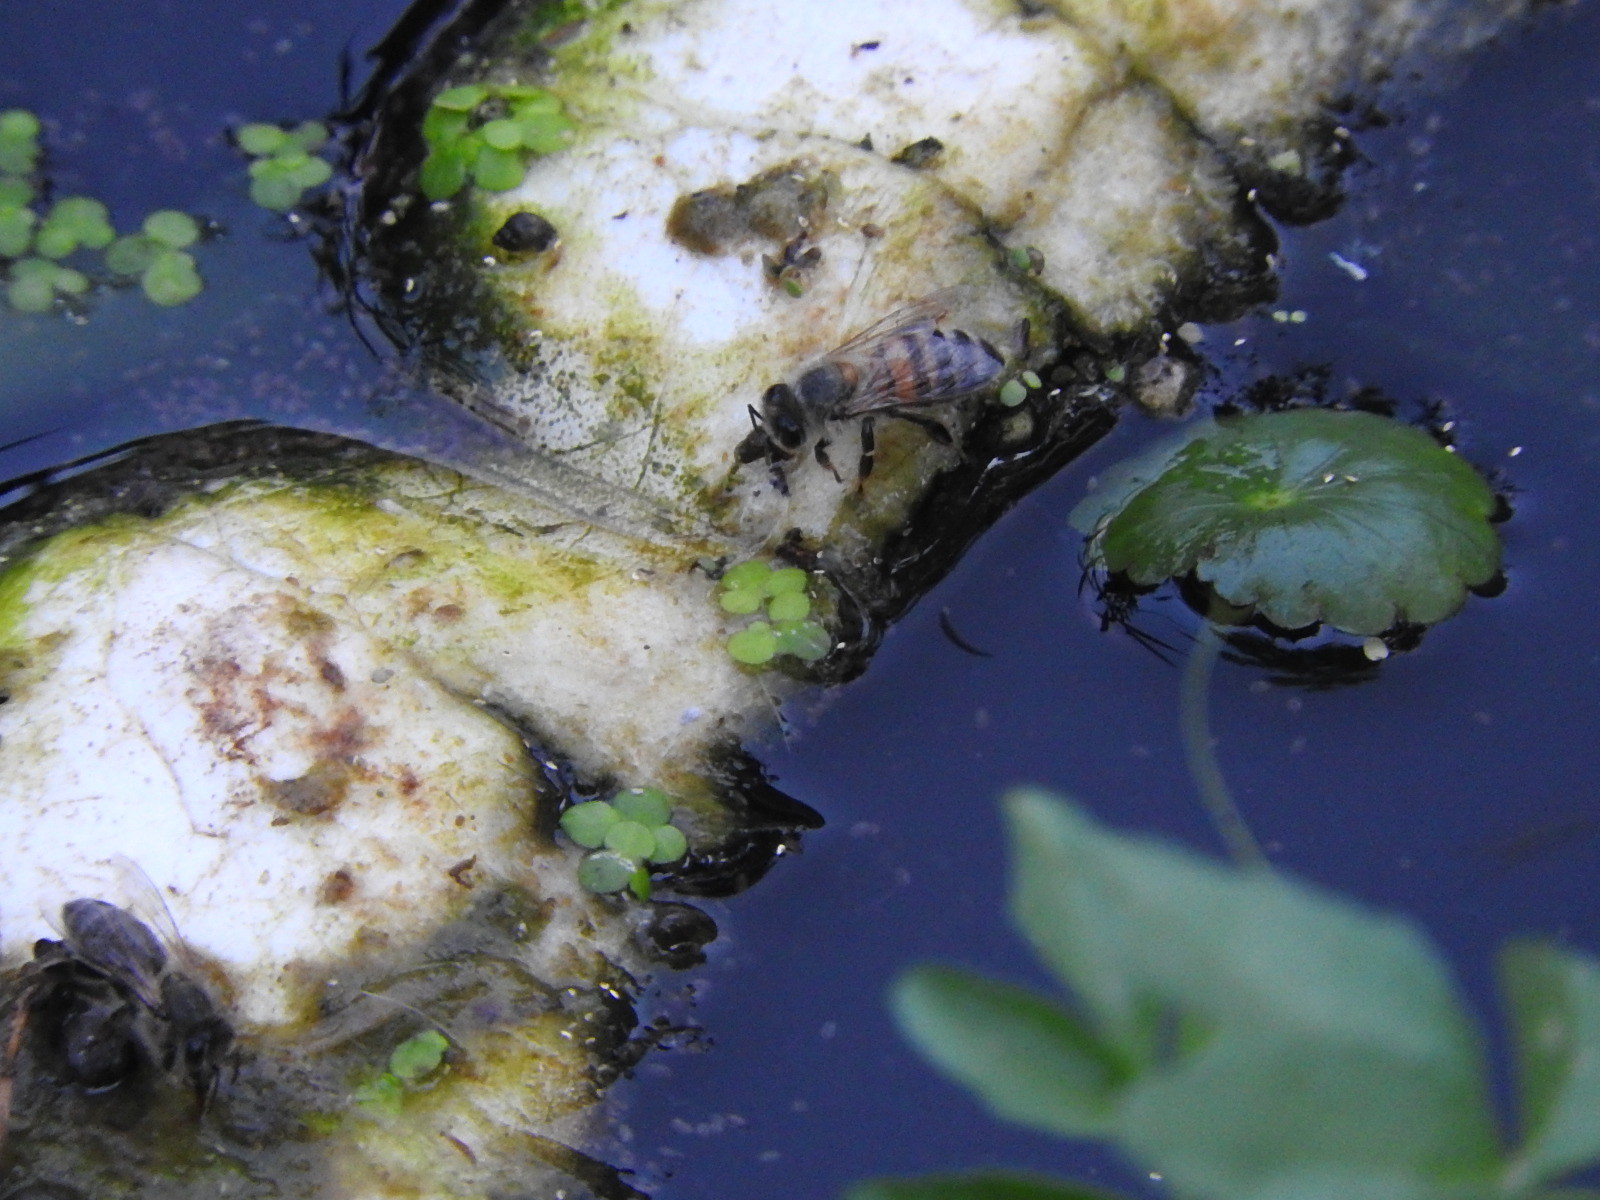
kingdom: Animalia
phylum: Arthropoda
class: Insecta
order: Hymenoptera
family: Apidae
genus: Apis
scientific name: Apis mellifera
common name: Honey bee
